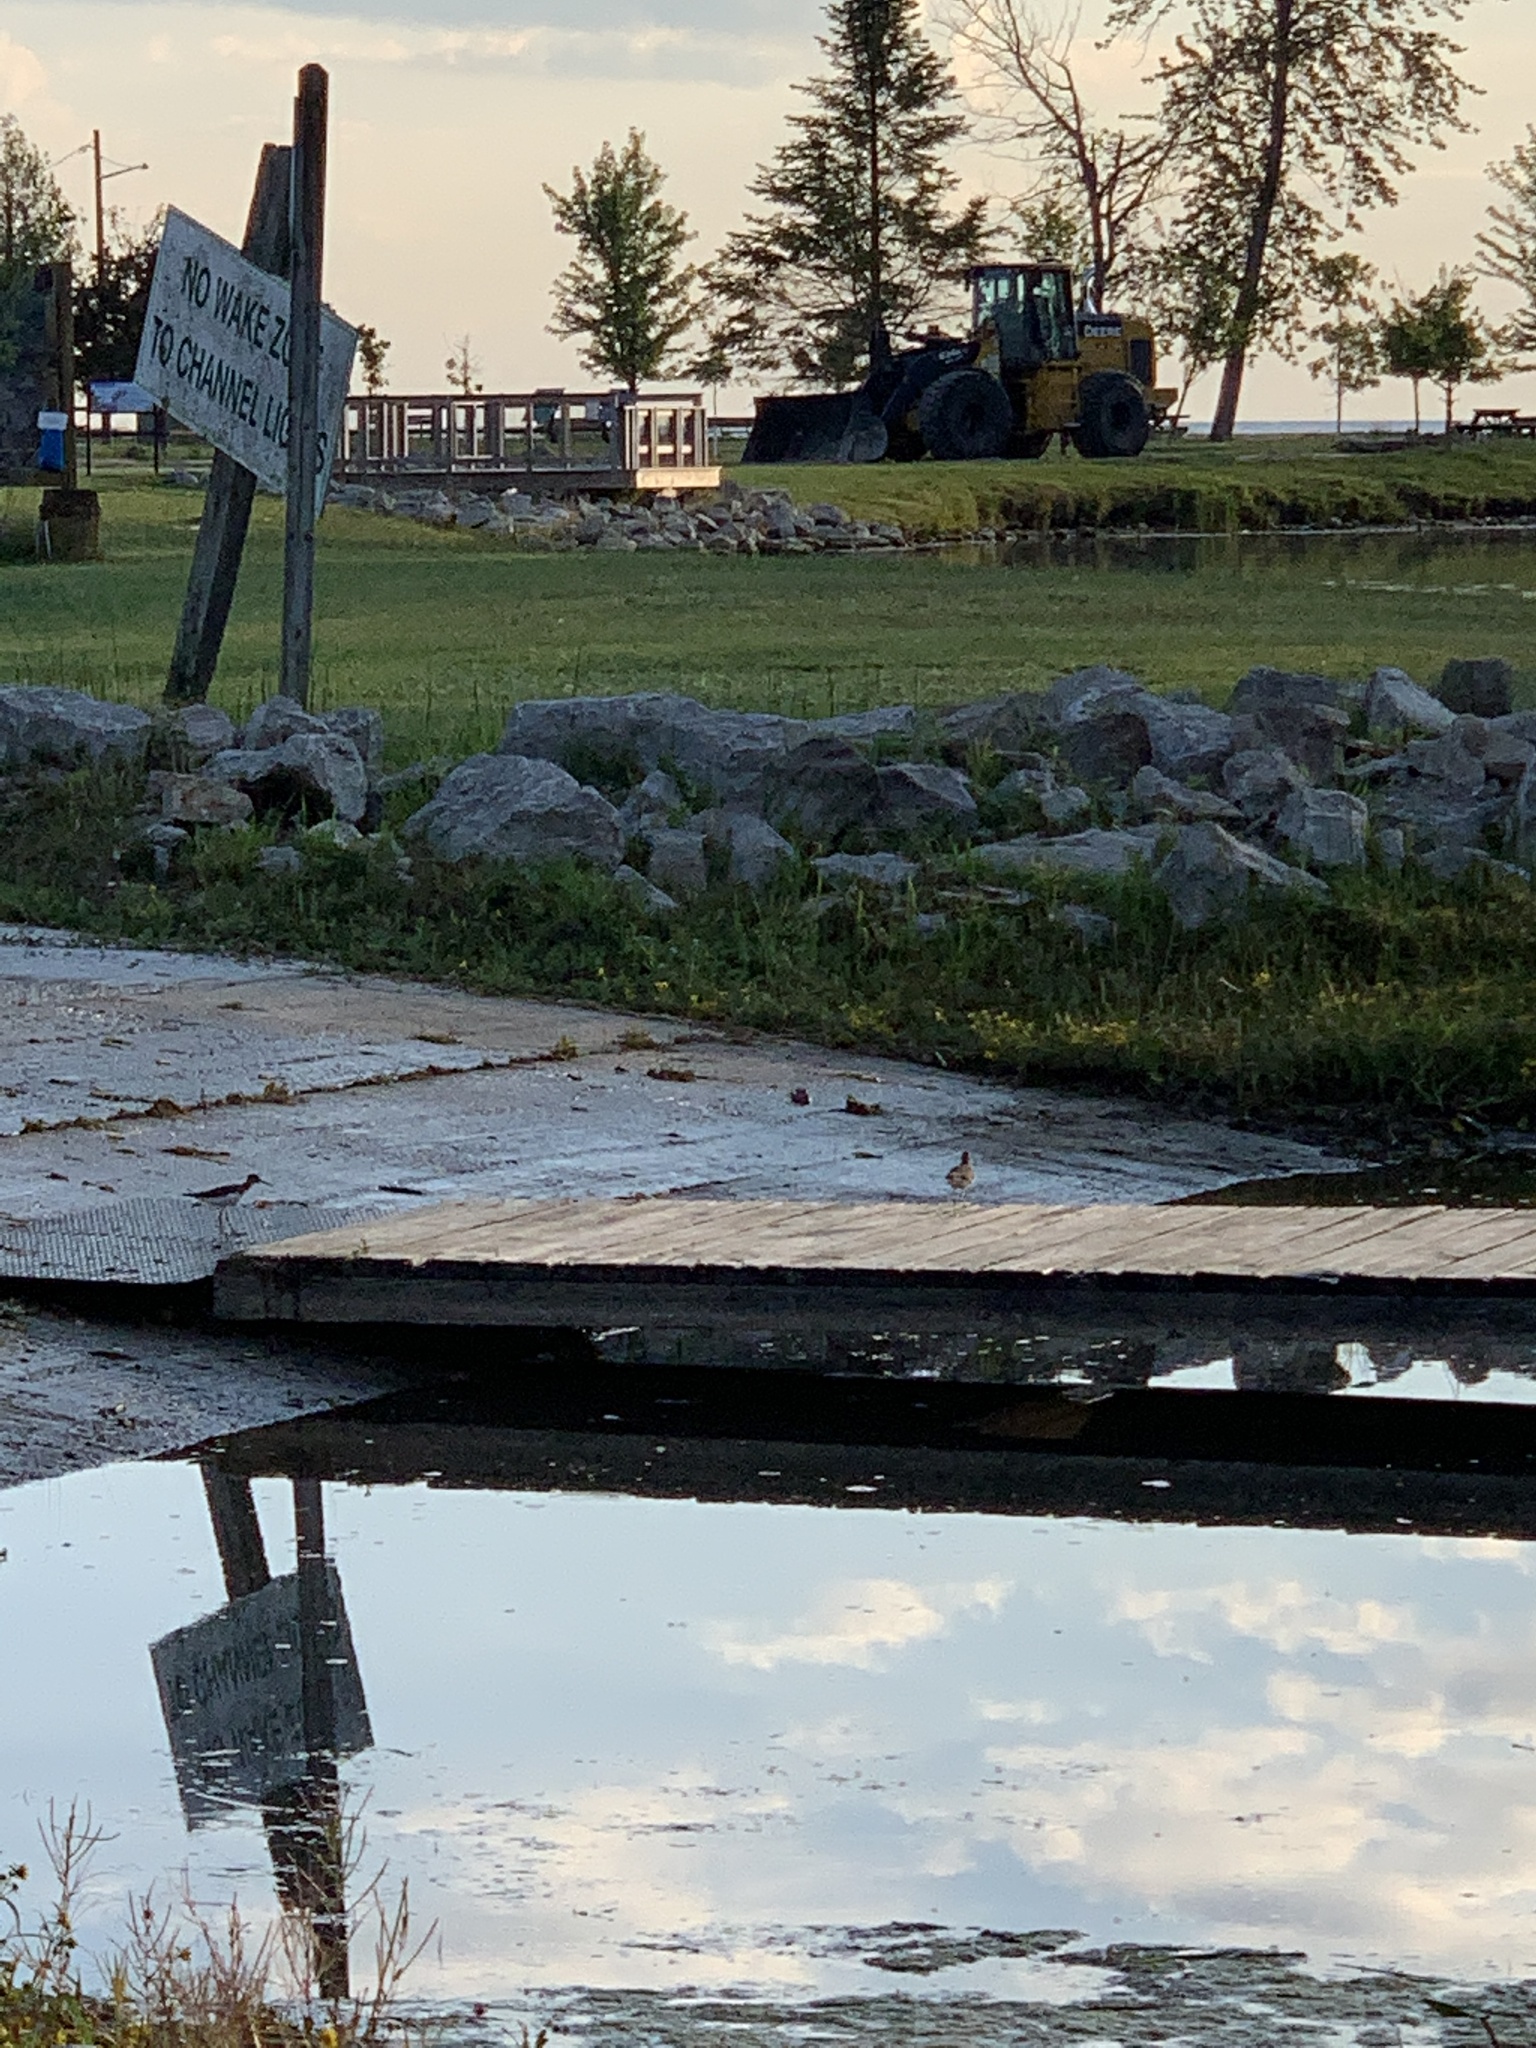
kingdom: Animalia
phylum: Chordata
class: Aves
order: Charadriiformes
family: Scolopacidae
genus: Actitis
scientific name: Actitis macularius
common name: Spotted sandpiper
